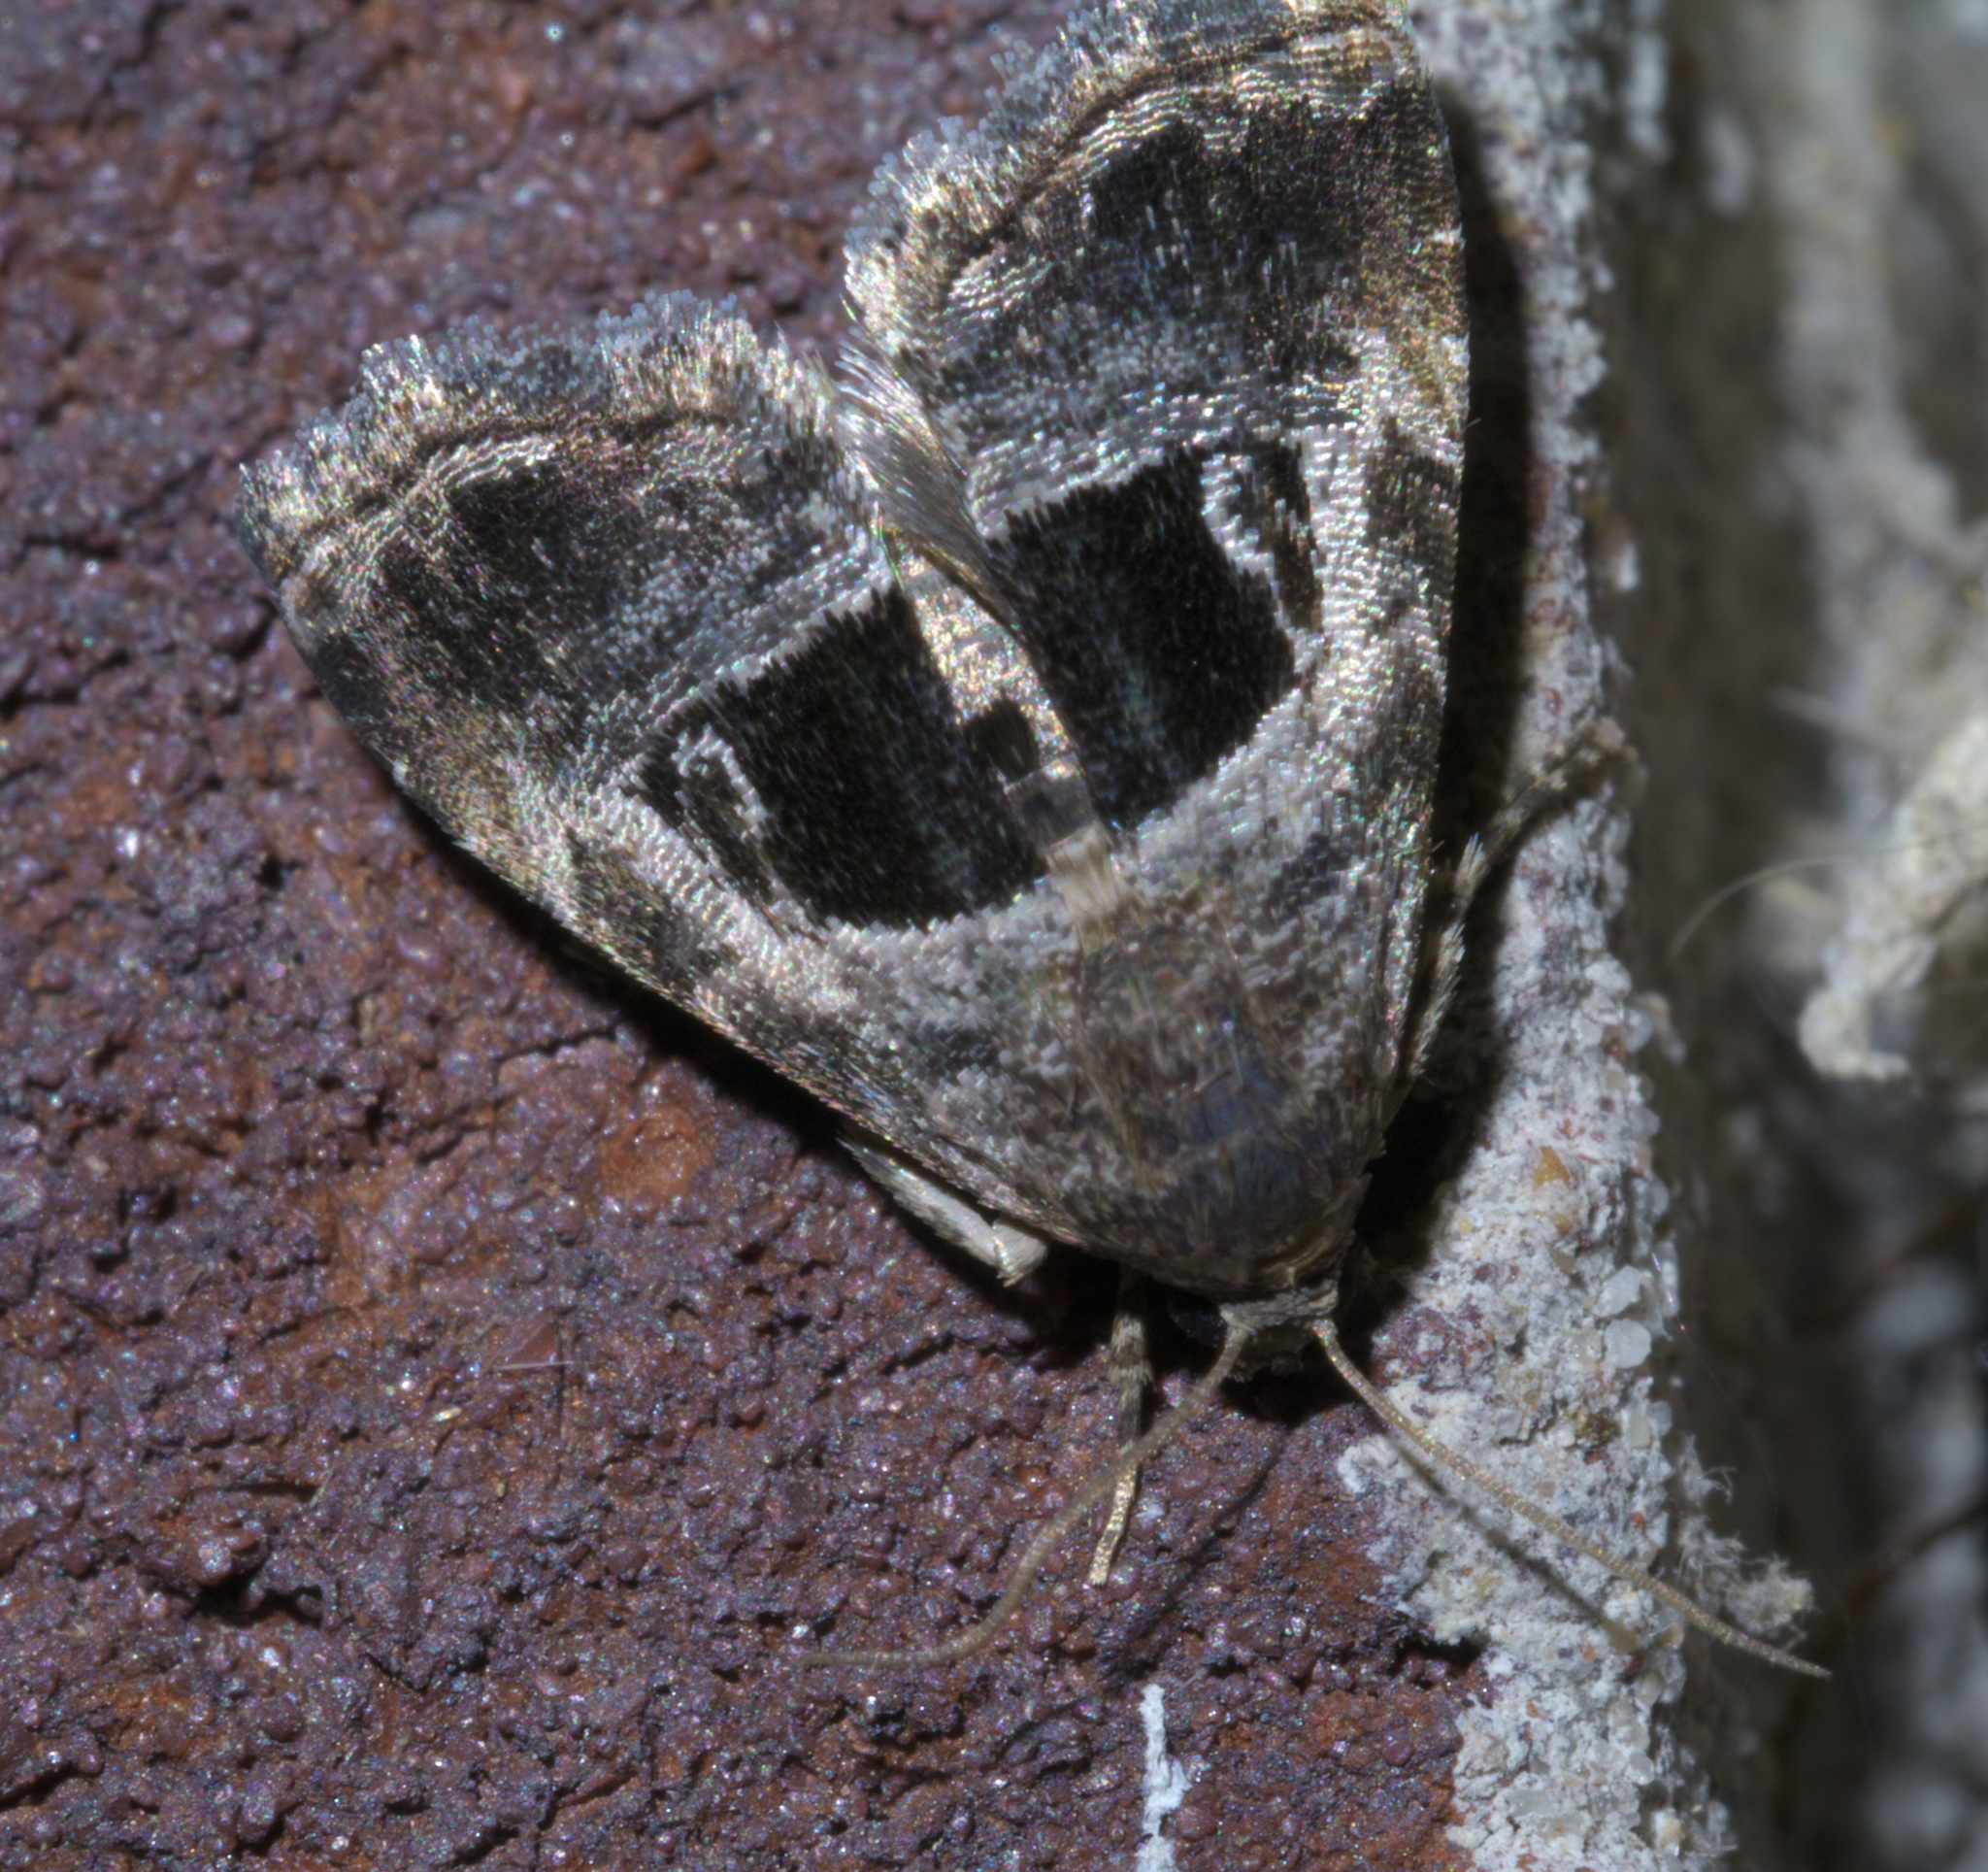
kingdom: Animalia
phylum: Arthropoda
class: Insecta
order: Lepidoptera
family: Noctuidae
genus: Tripudia
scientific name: Tripudia rectangula
